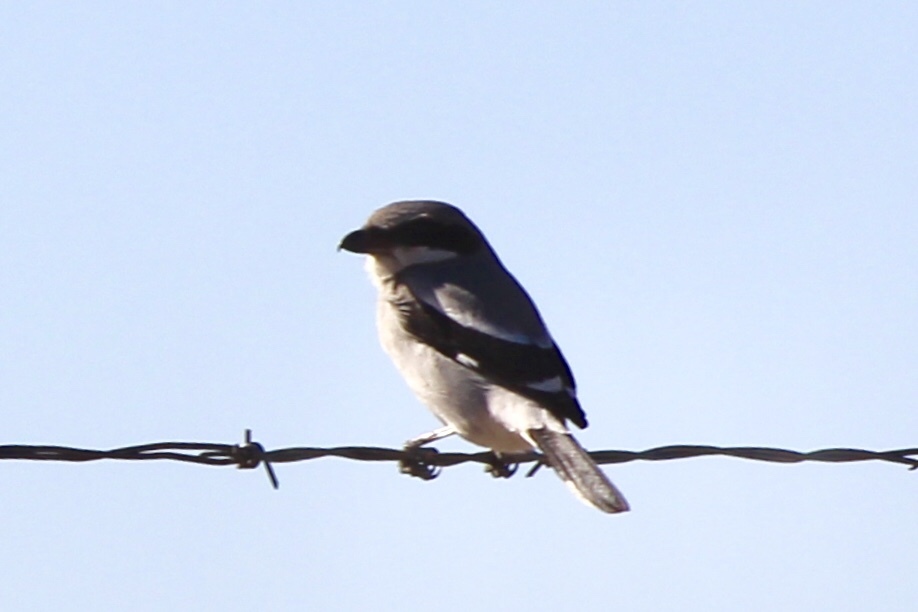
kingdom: Animalia
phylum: Chordata
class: Aves
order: Passeriformes
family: Laniidae
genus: Lanius
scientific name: Lanius ludovicianus
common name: Loggerhead shrike
